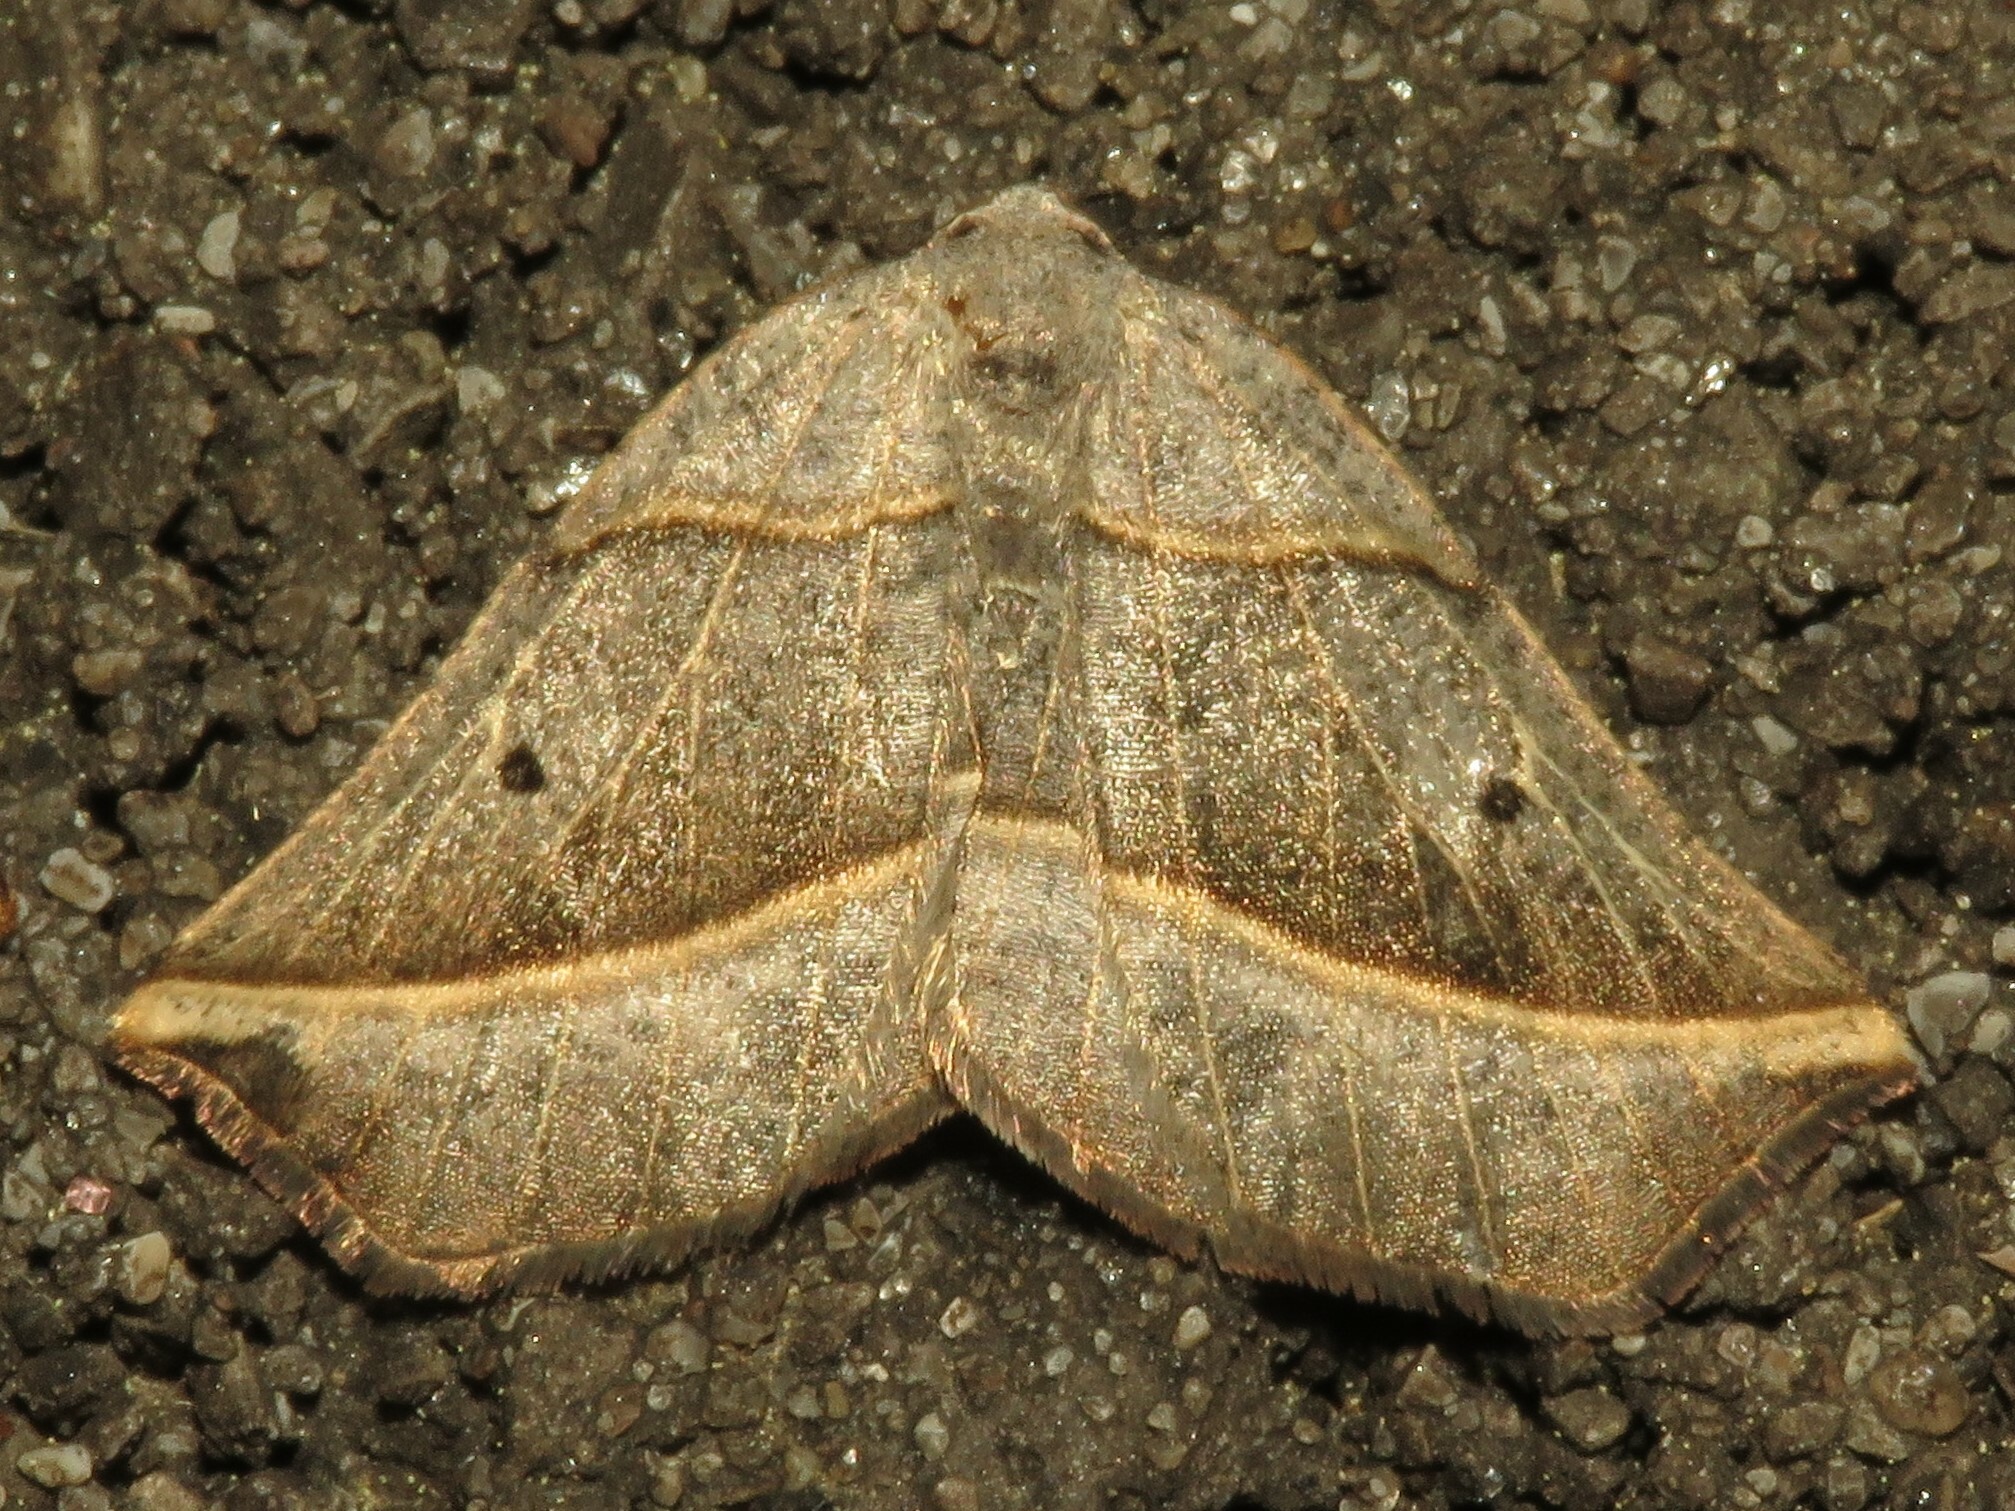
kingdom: Animalia
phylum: Arthropoda
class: Insecta
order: Lepidoptera
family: Geometridae
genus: Metanema
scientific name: Metanema determinata
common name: Dark metanema
